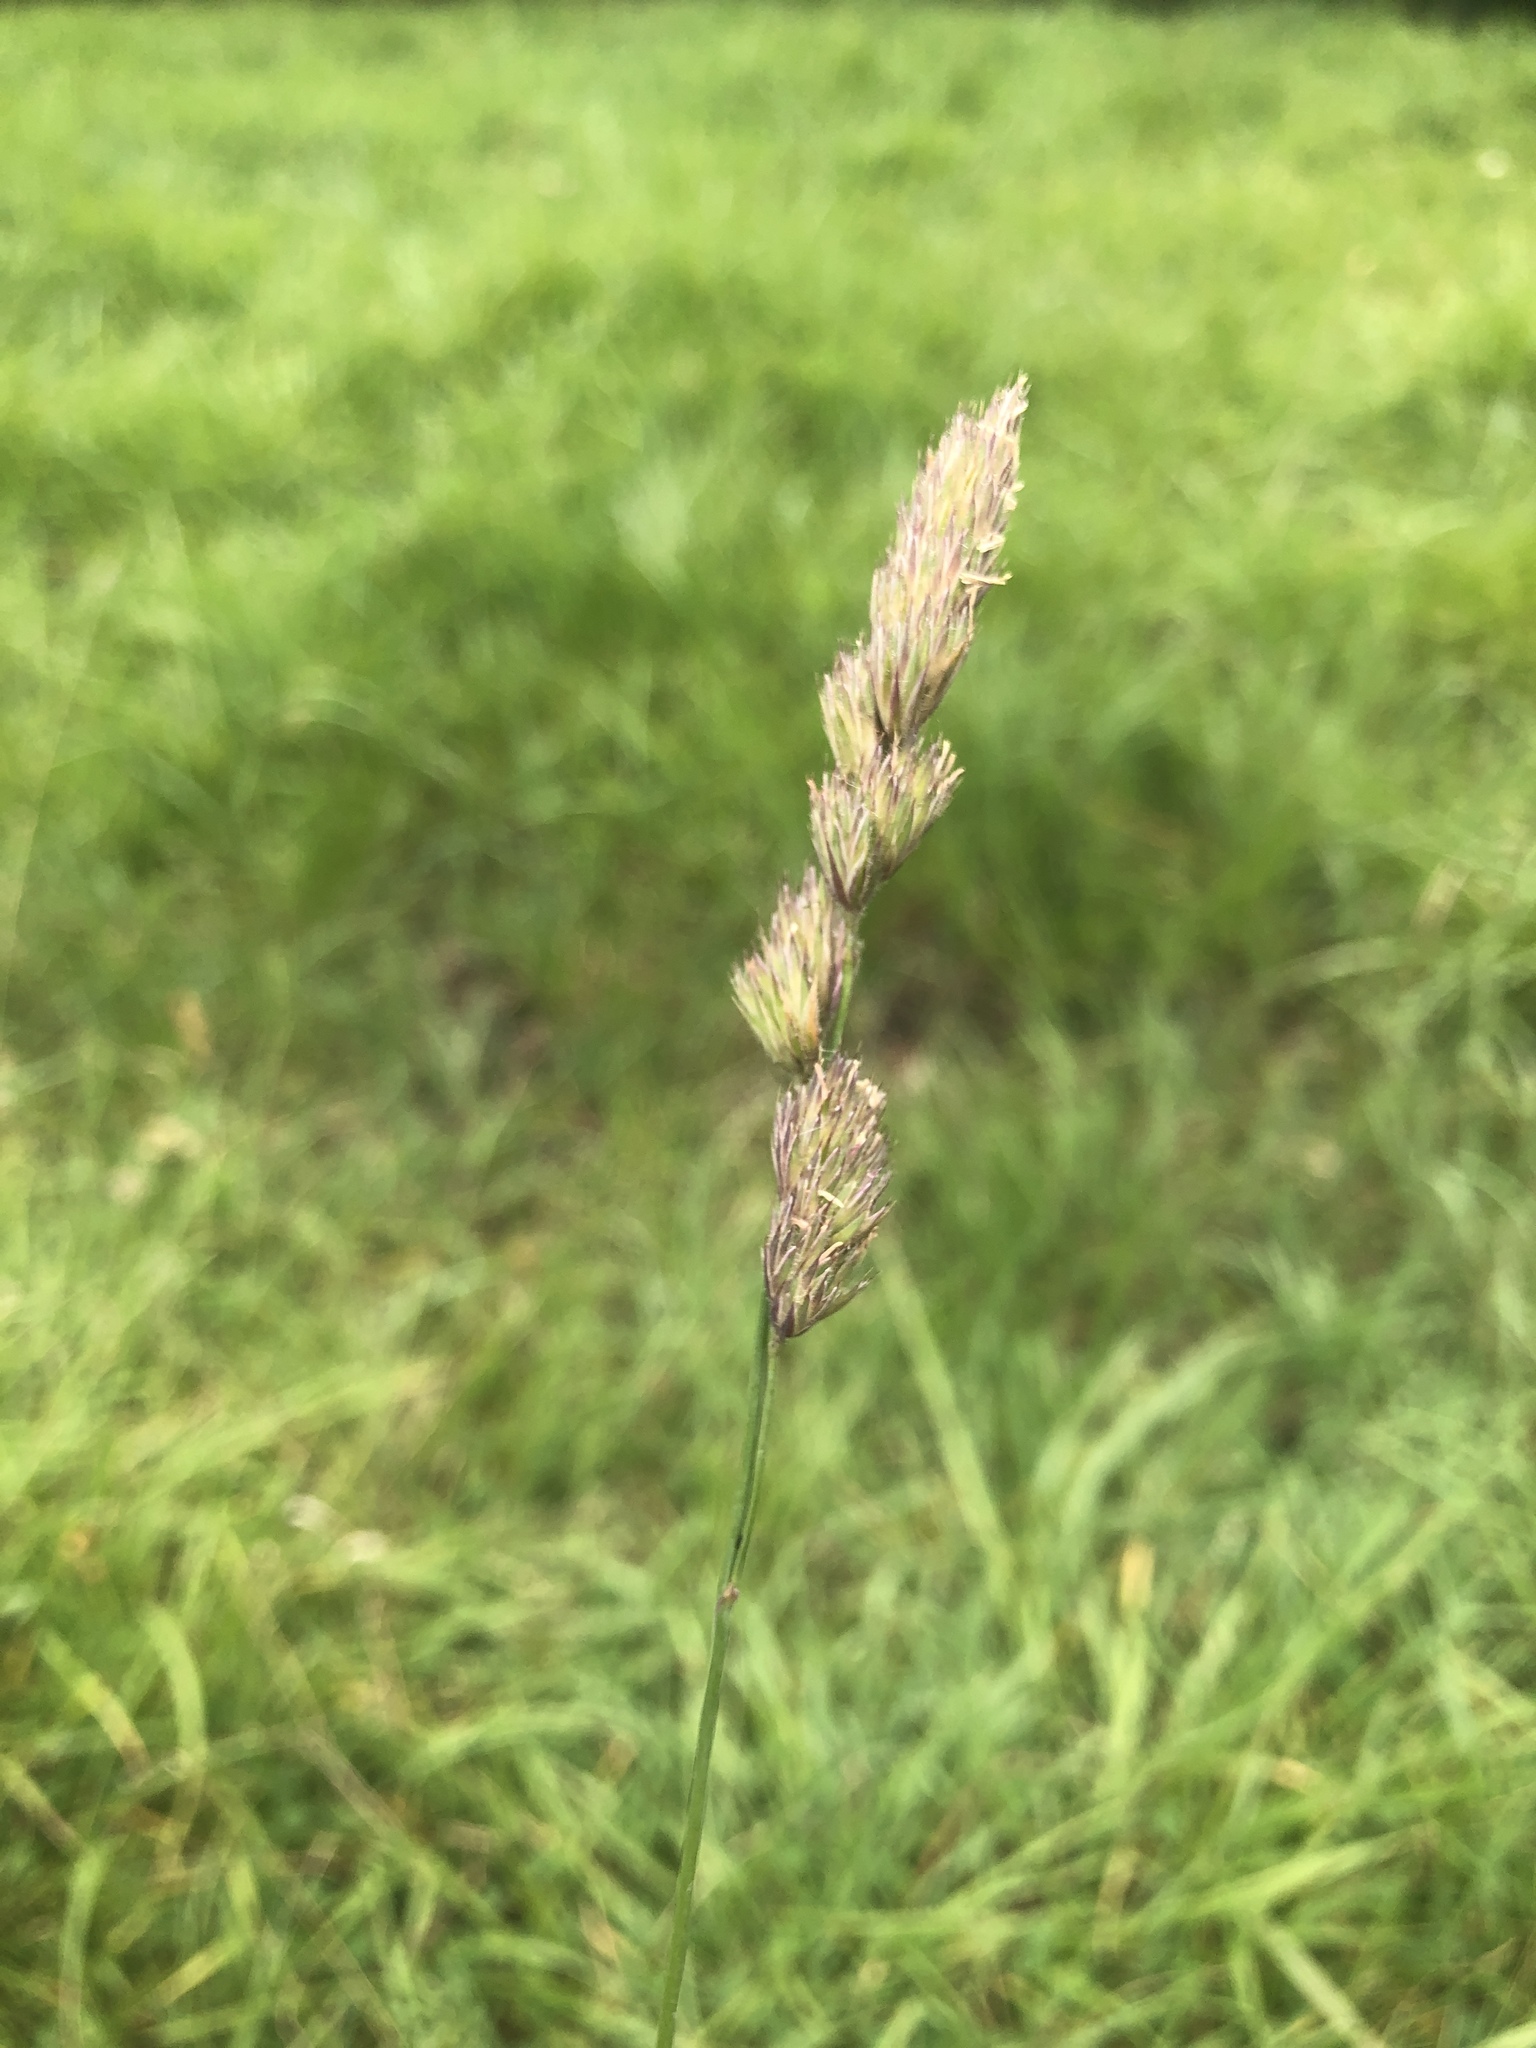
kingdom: Plantae
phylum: Tracheophyta
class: Liliopsida
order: Poales
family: Poaceae
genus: Dactylis
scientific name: Dactylis glomerata
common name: Orchardgrass
